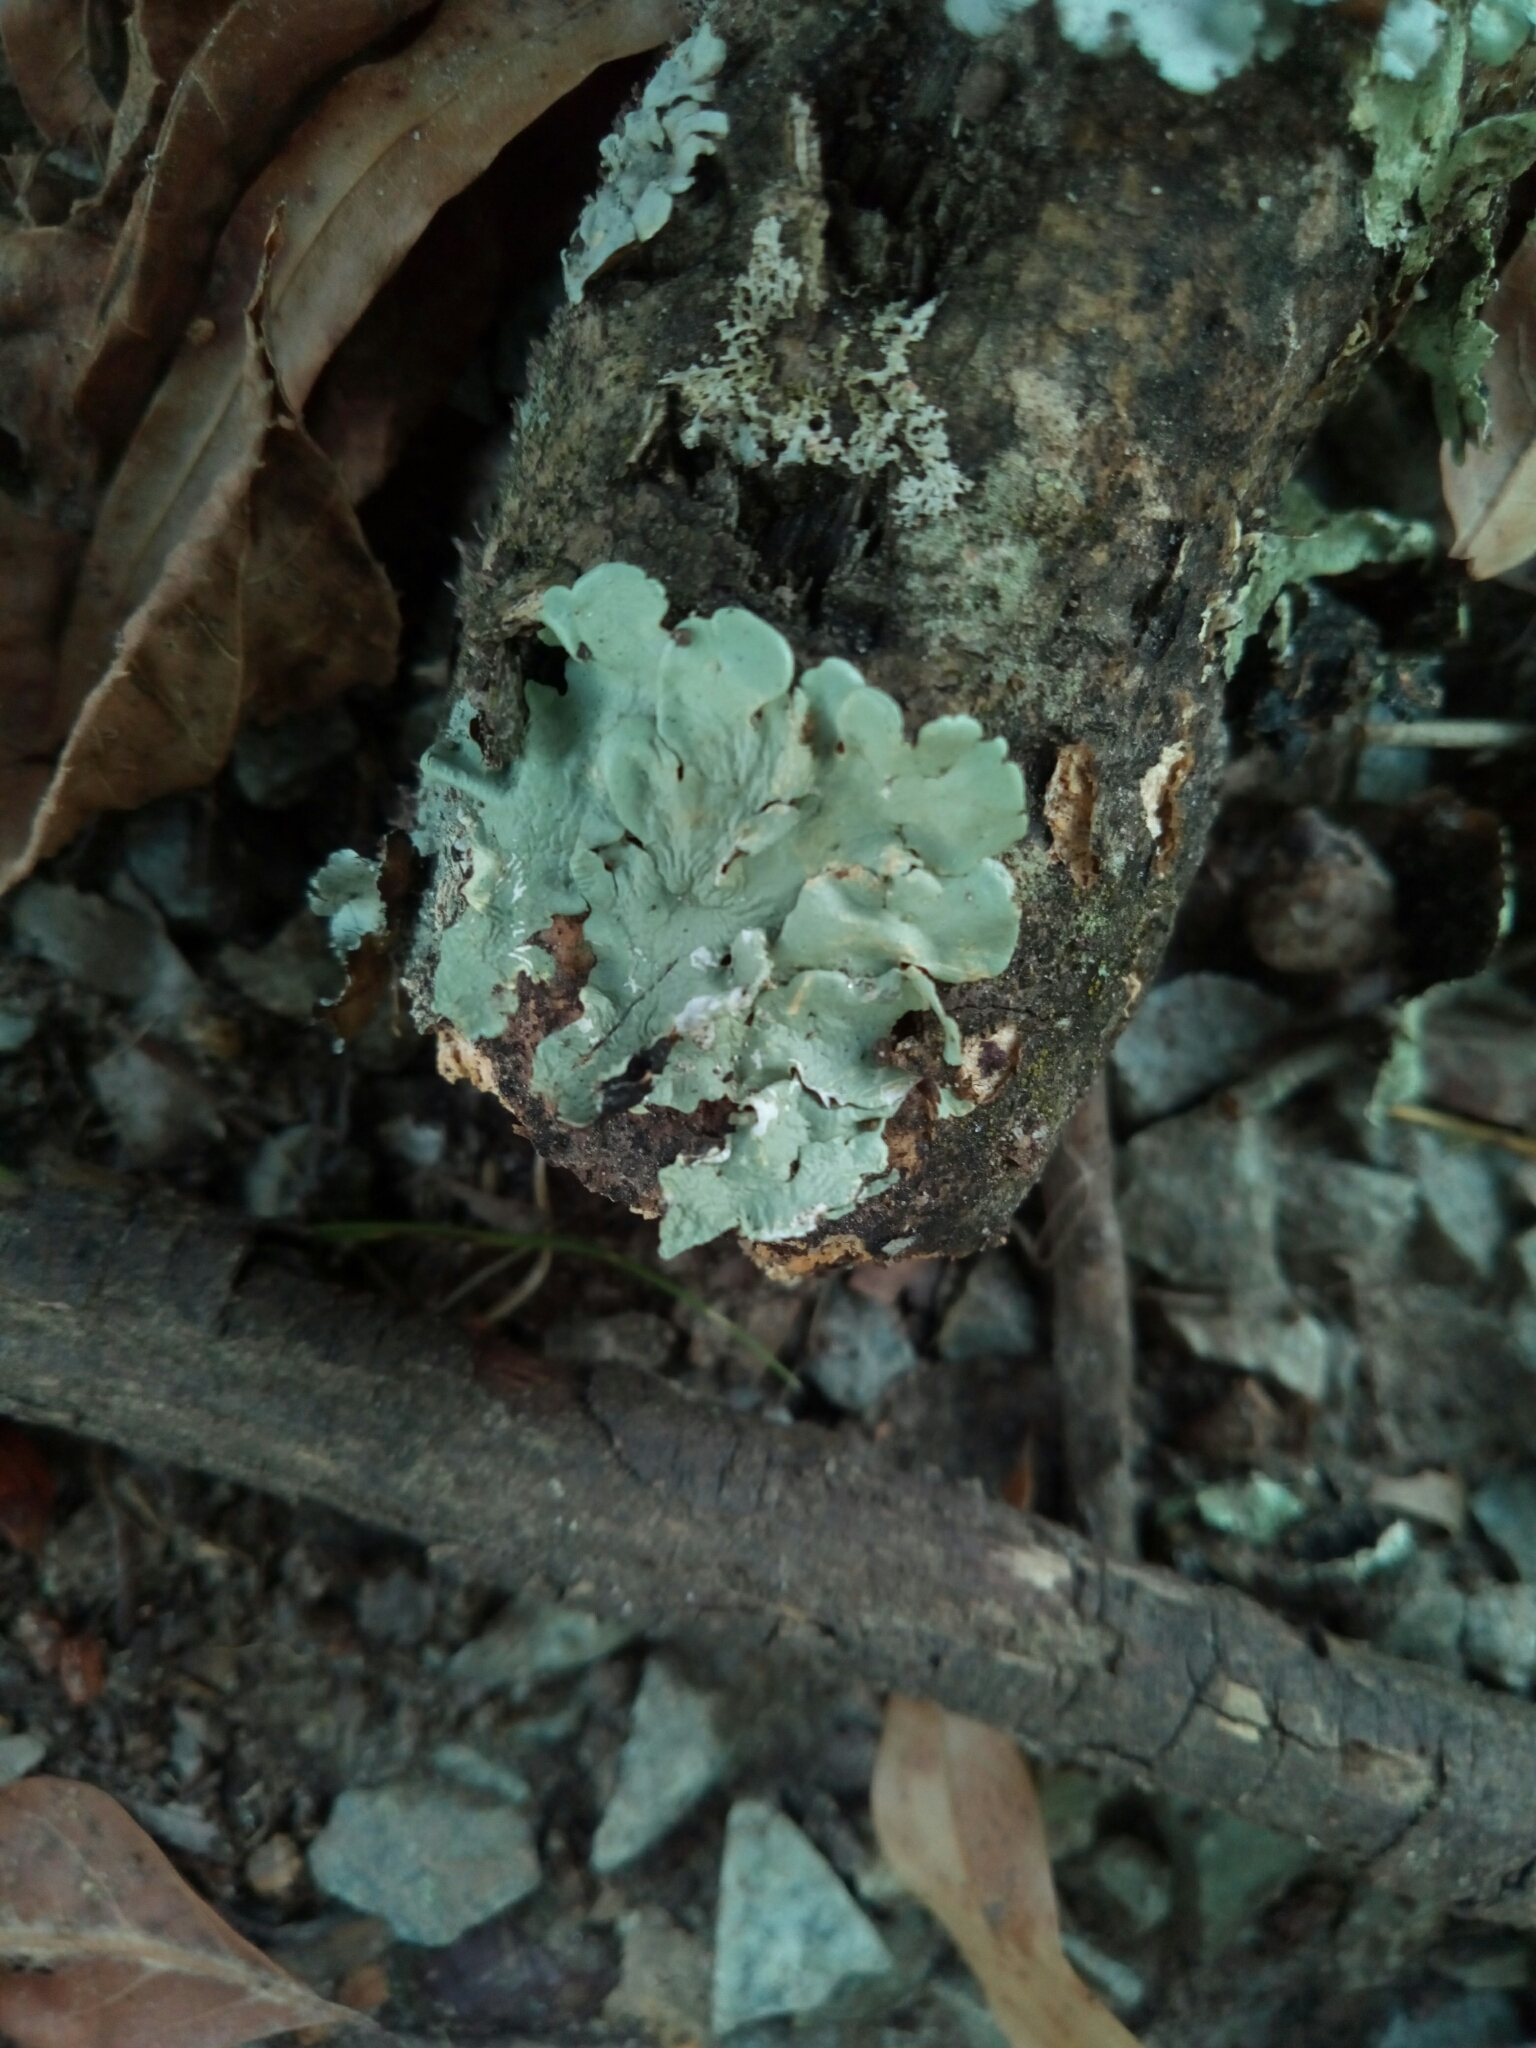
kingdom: Fungi
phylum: Ascomycota
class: Lecanoromycetes
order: Lecanorales
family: Parmeliaceae
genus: Flavoparmelia
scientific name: Flavoparmelia caperata
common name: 40-mile per hour lichen
